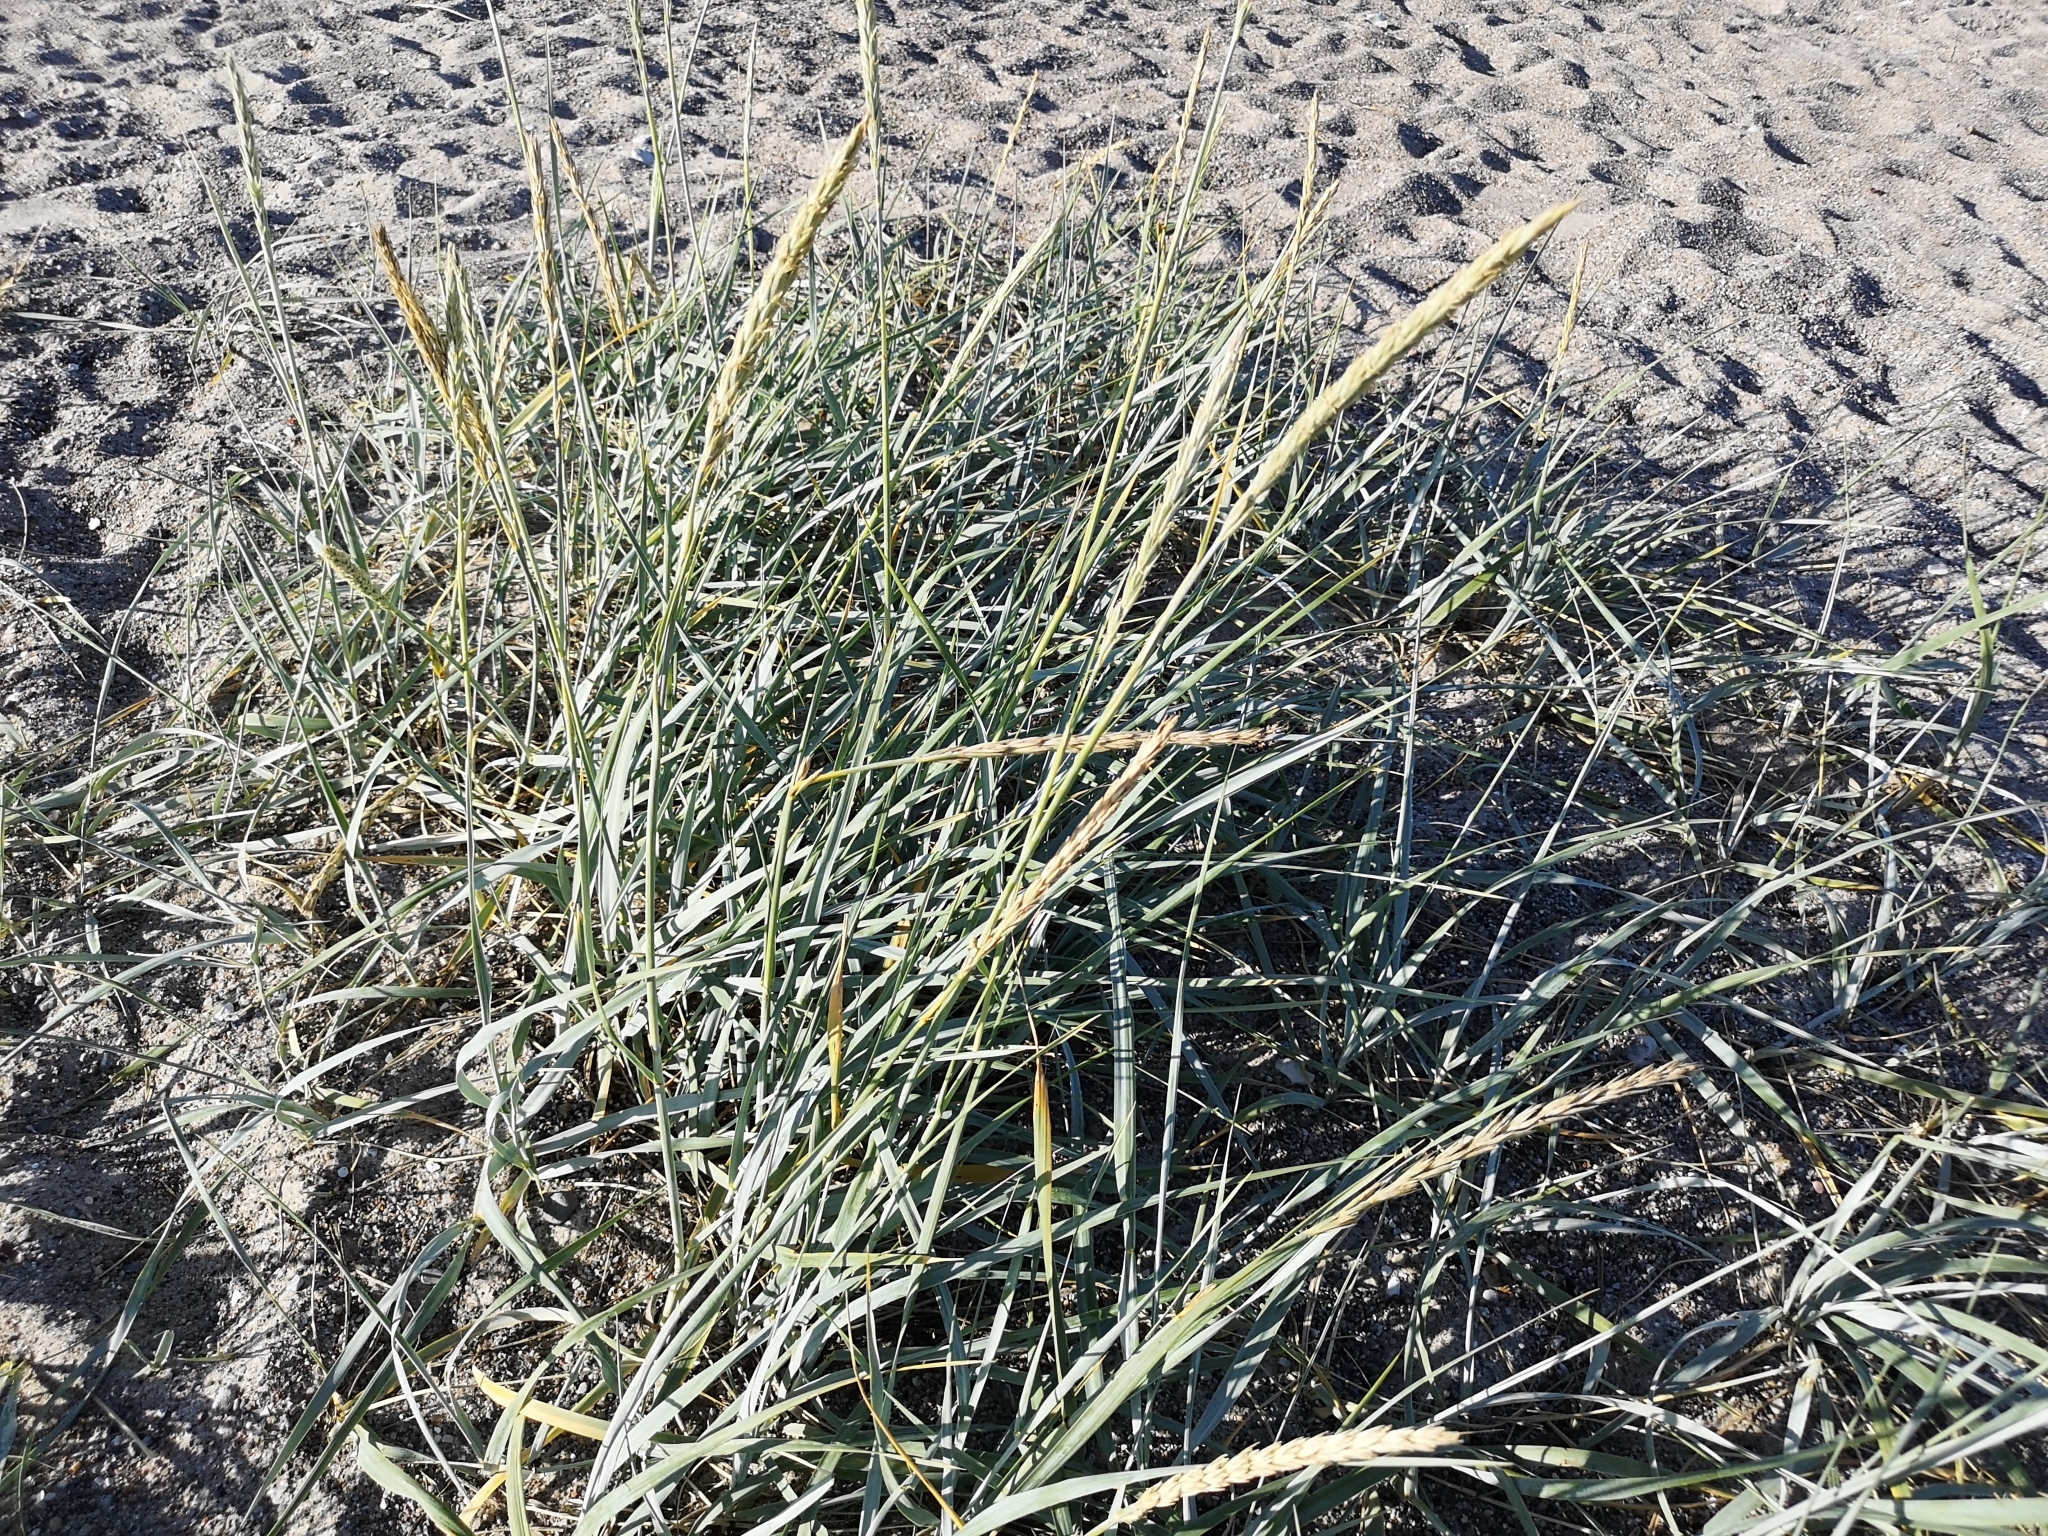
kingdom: Plantae
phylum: Tracheophyta
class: Liliopsida
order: Poales
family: Poaceae
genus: Leymus
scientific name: Leymus arenarius
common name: Lyme-grass
